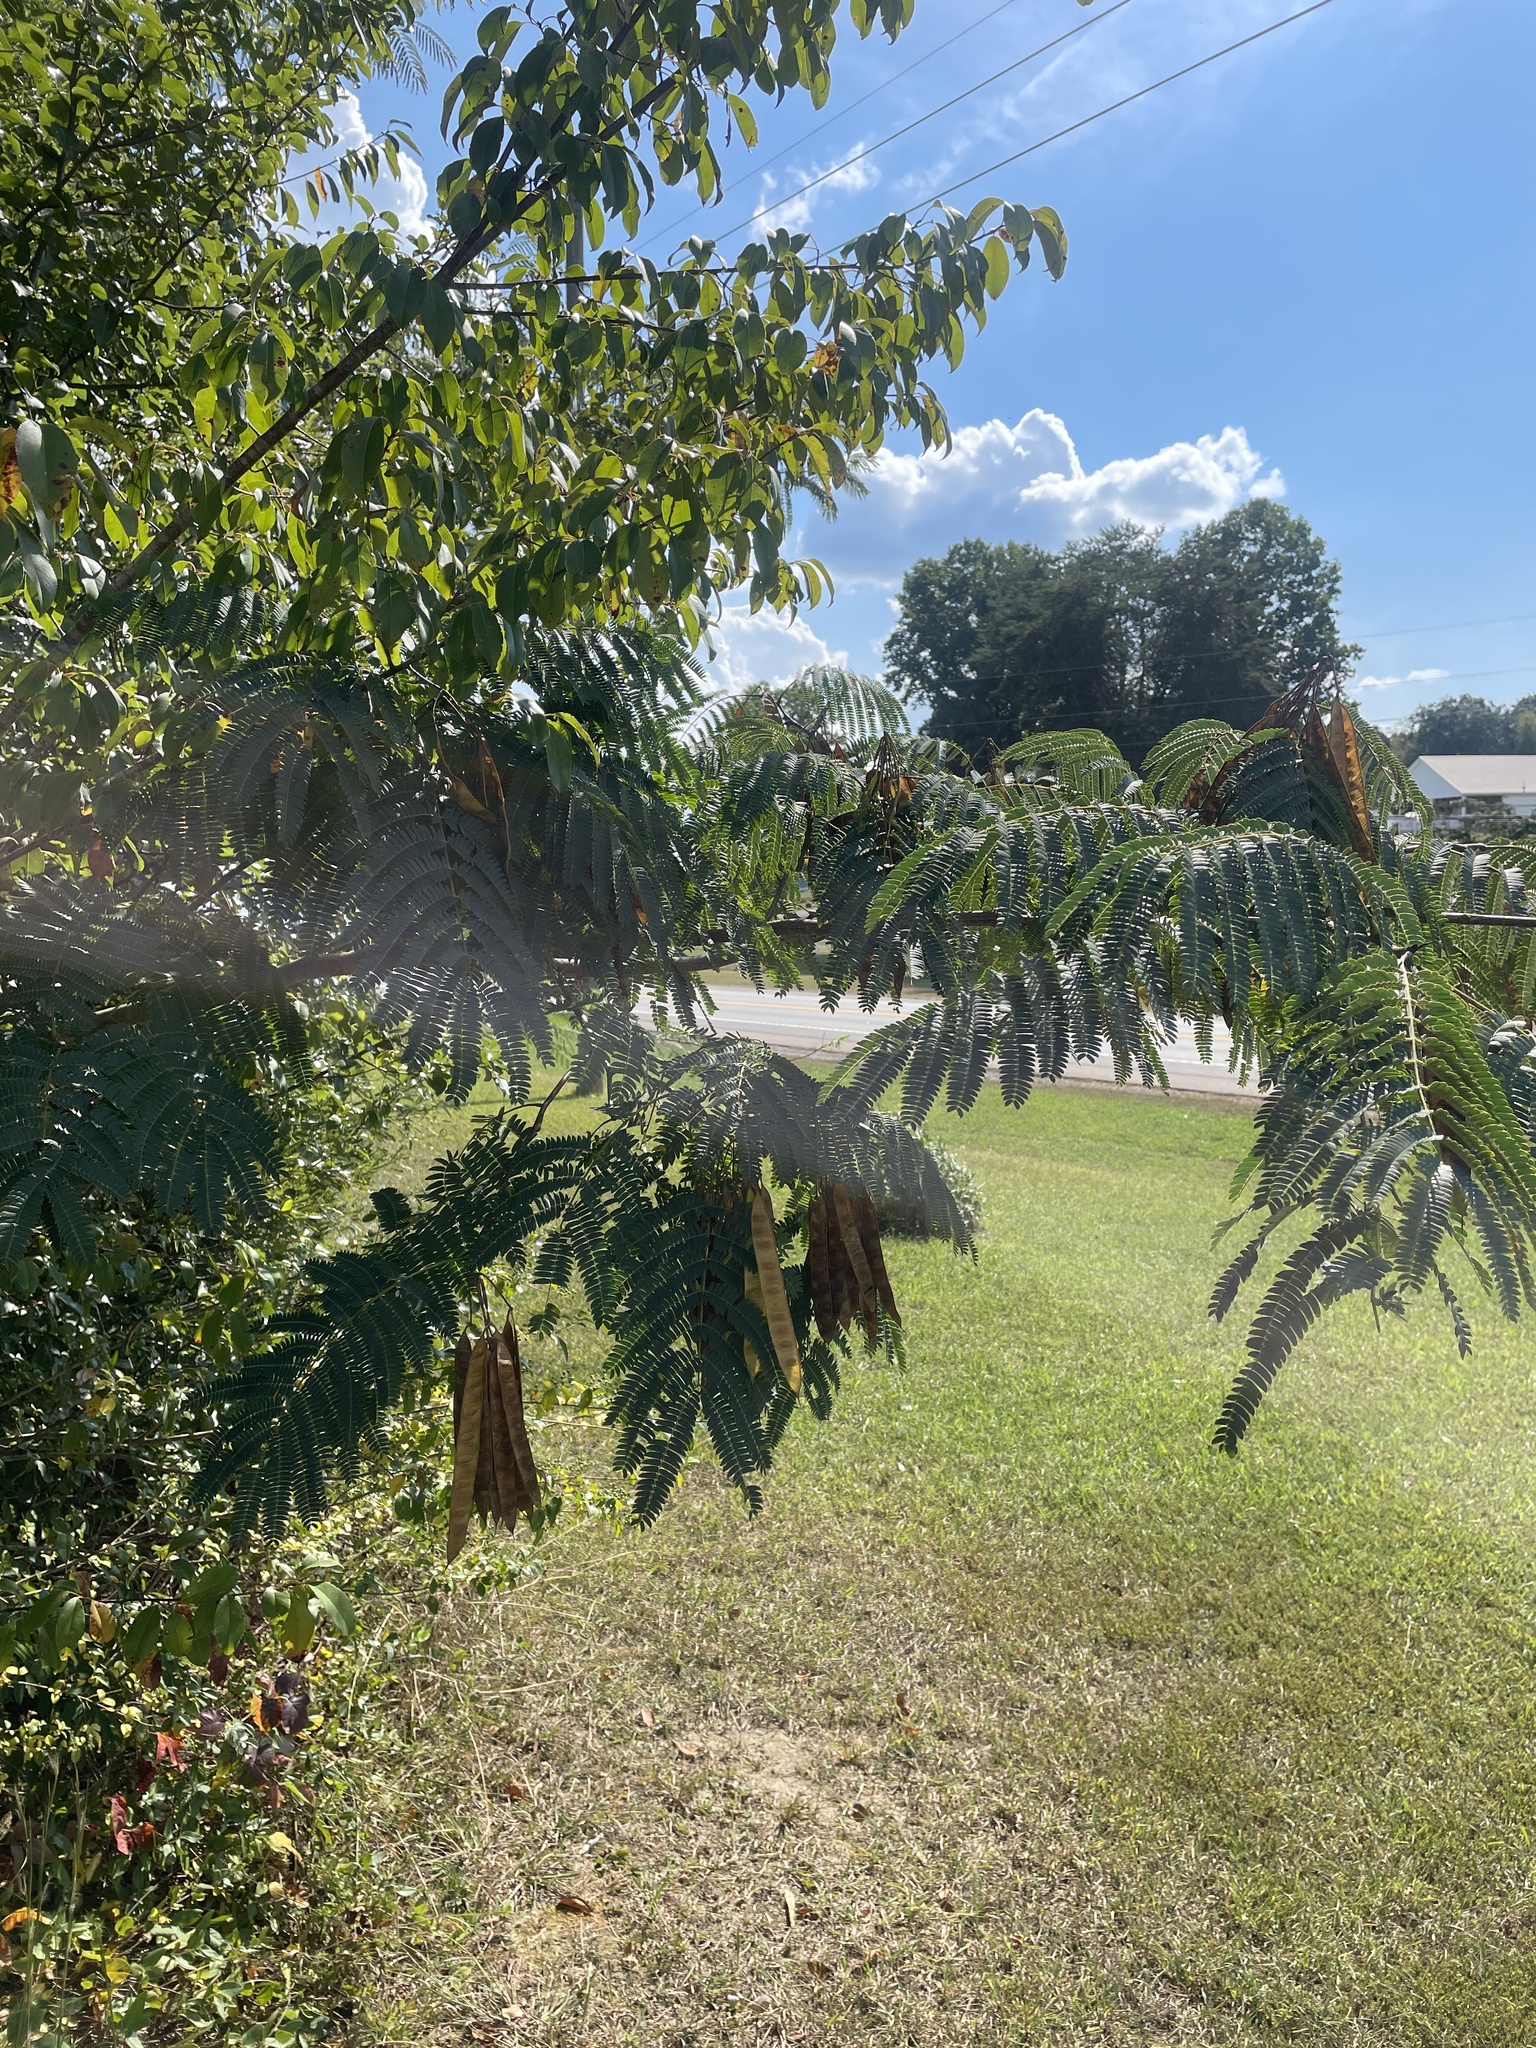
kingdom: Plantae
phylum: Tracheophyta
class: Magnoliopsida
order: Fabales
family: Fabaceae
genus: Albizia
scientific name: Albizia julibrissin
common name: Silktree
